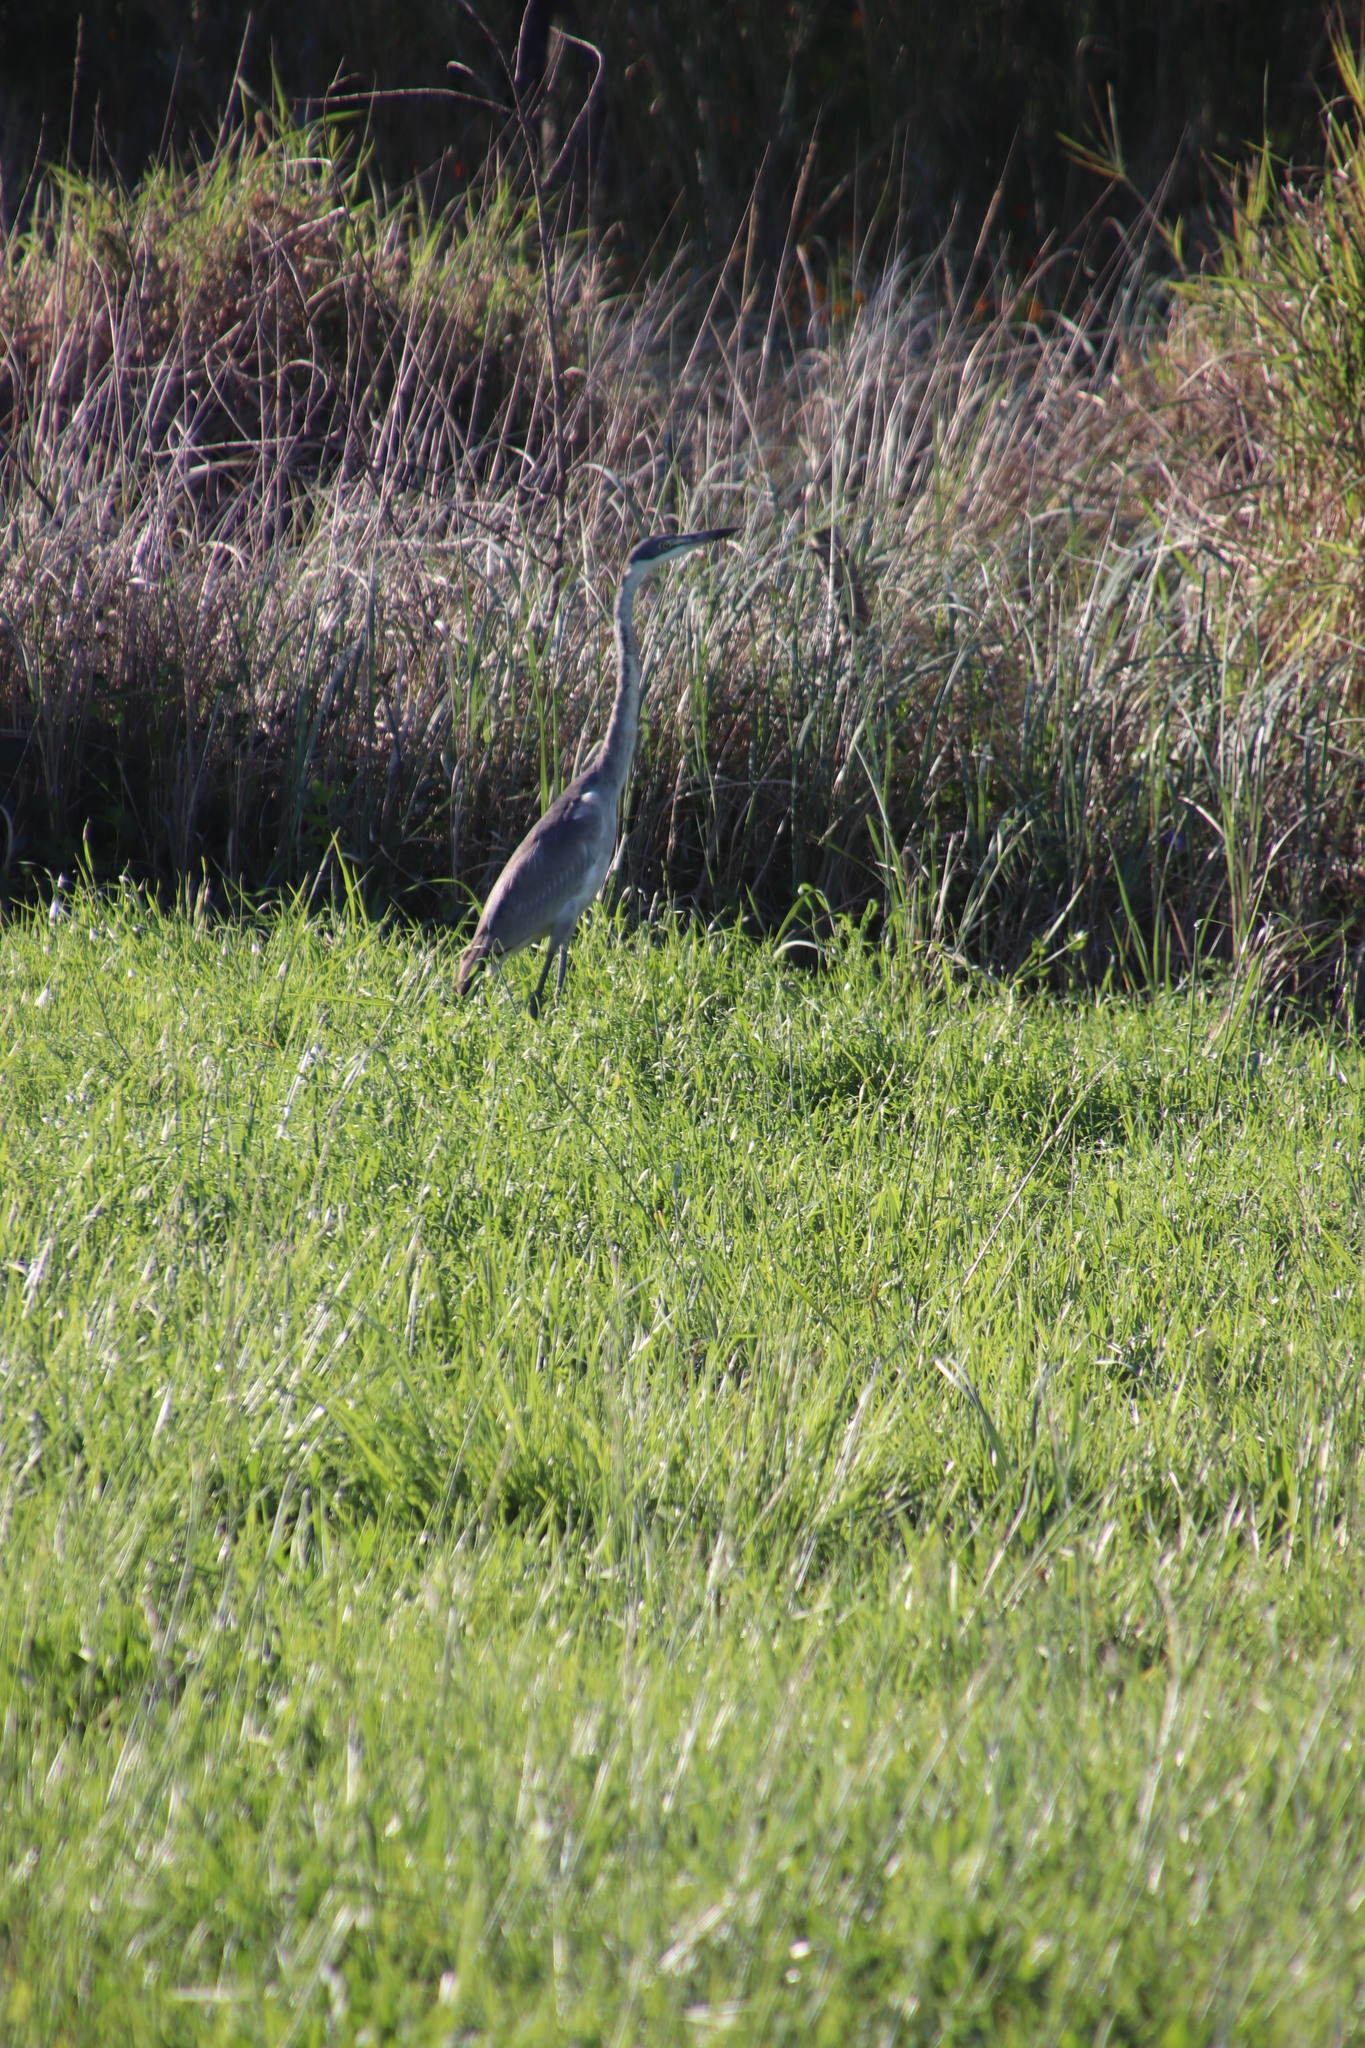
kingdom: Animalia
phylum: Chordata
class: Aves
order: Pelecaniformes
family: Ardeidae
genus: Ardea
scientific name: Ardea melanocephala
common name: Black-headed heron
